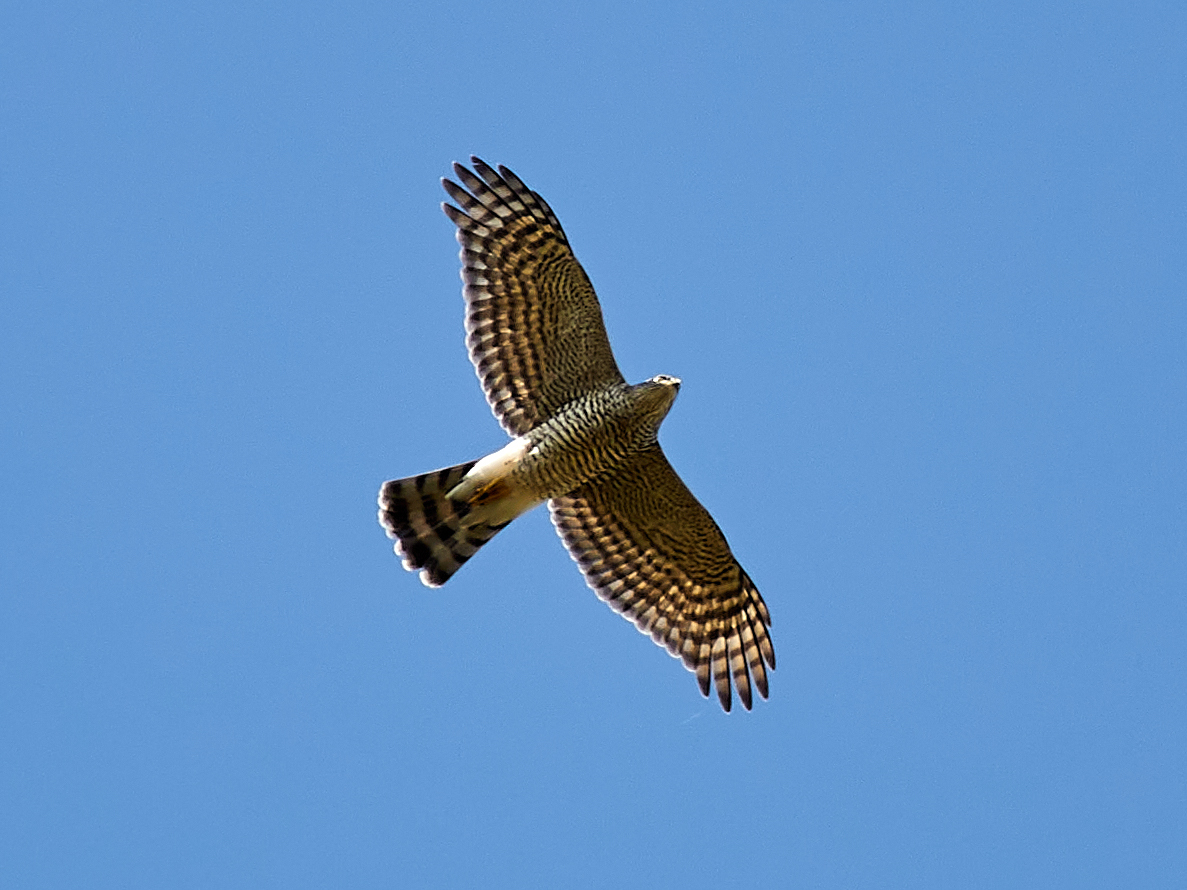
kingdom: Animalia
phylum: Chordata
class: Aves
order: Accipitriformes
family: Accipitridae
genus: Accipiter
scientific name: Accipiter nisus
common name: Eurasian sparrowhawk
